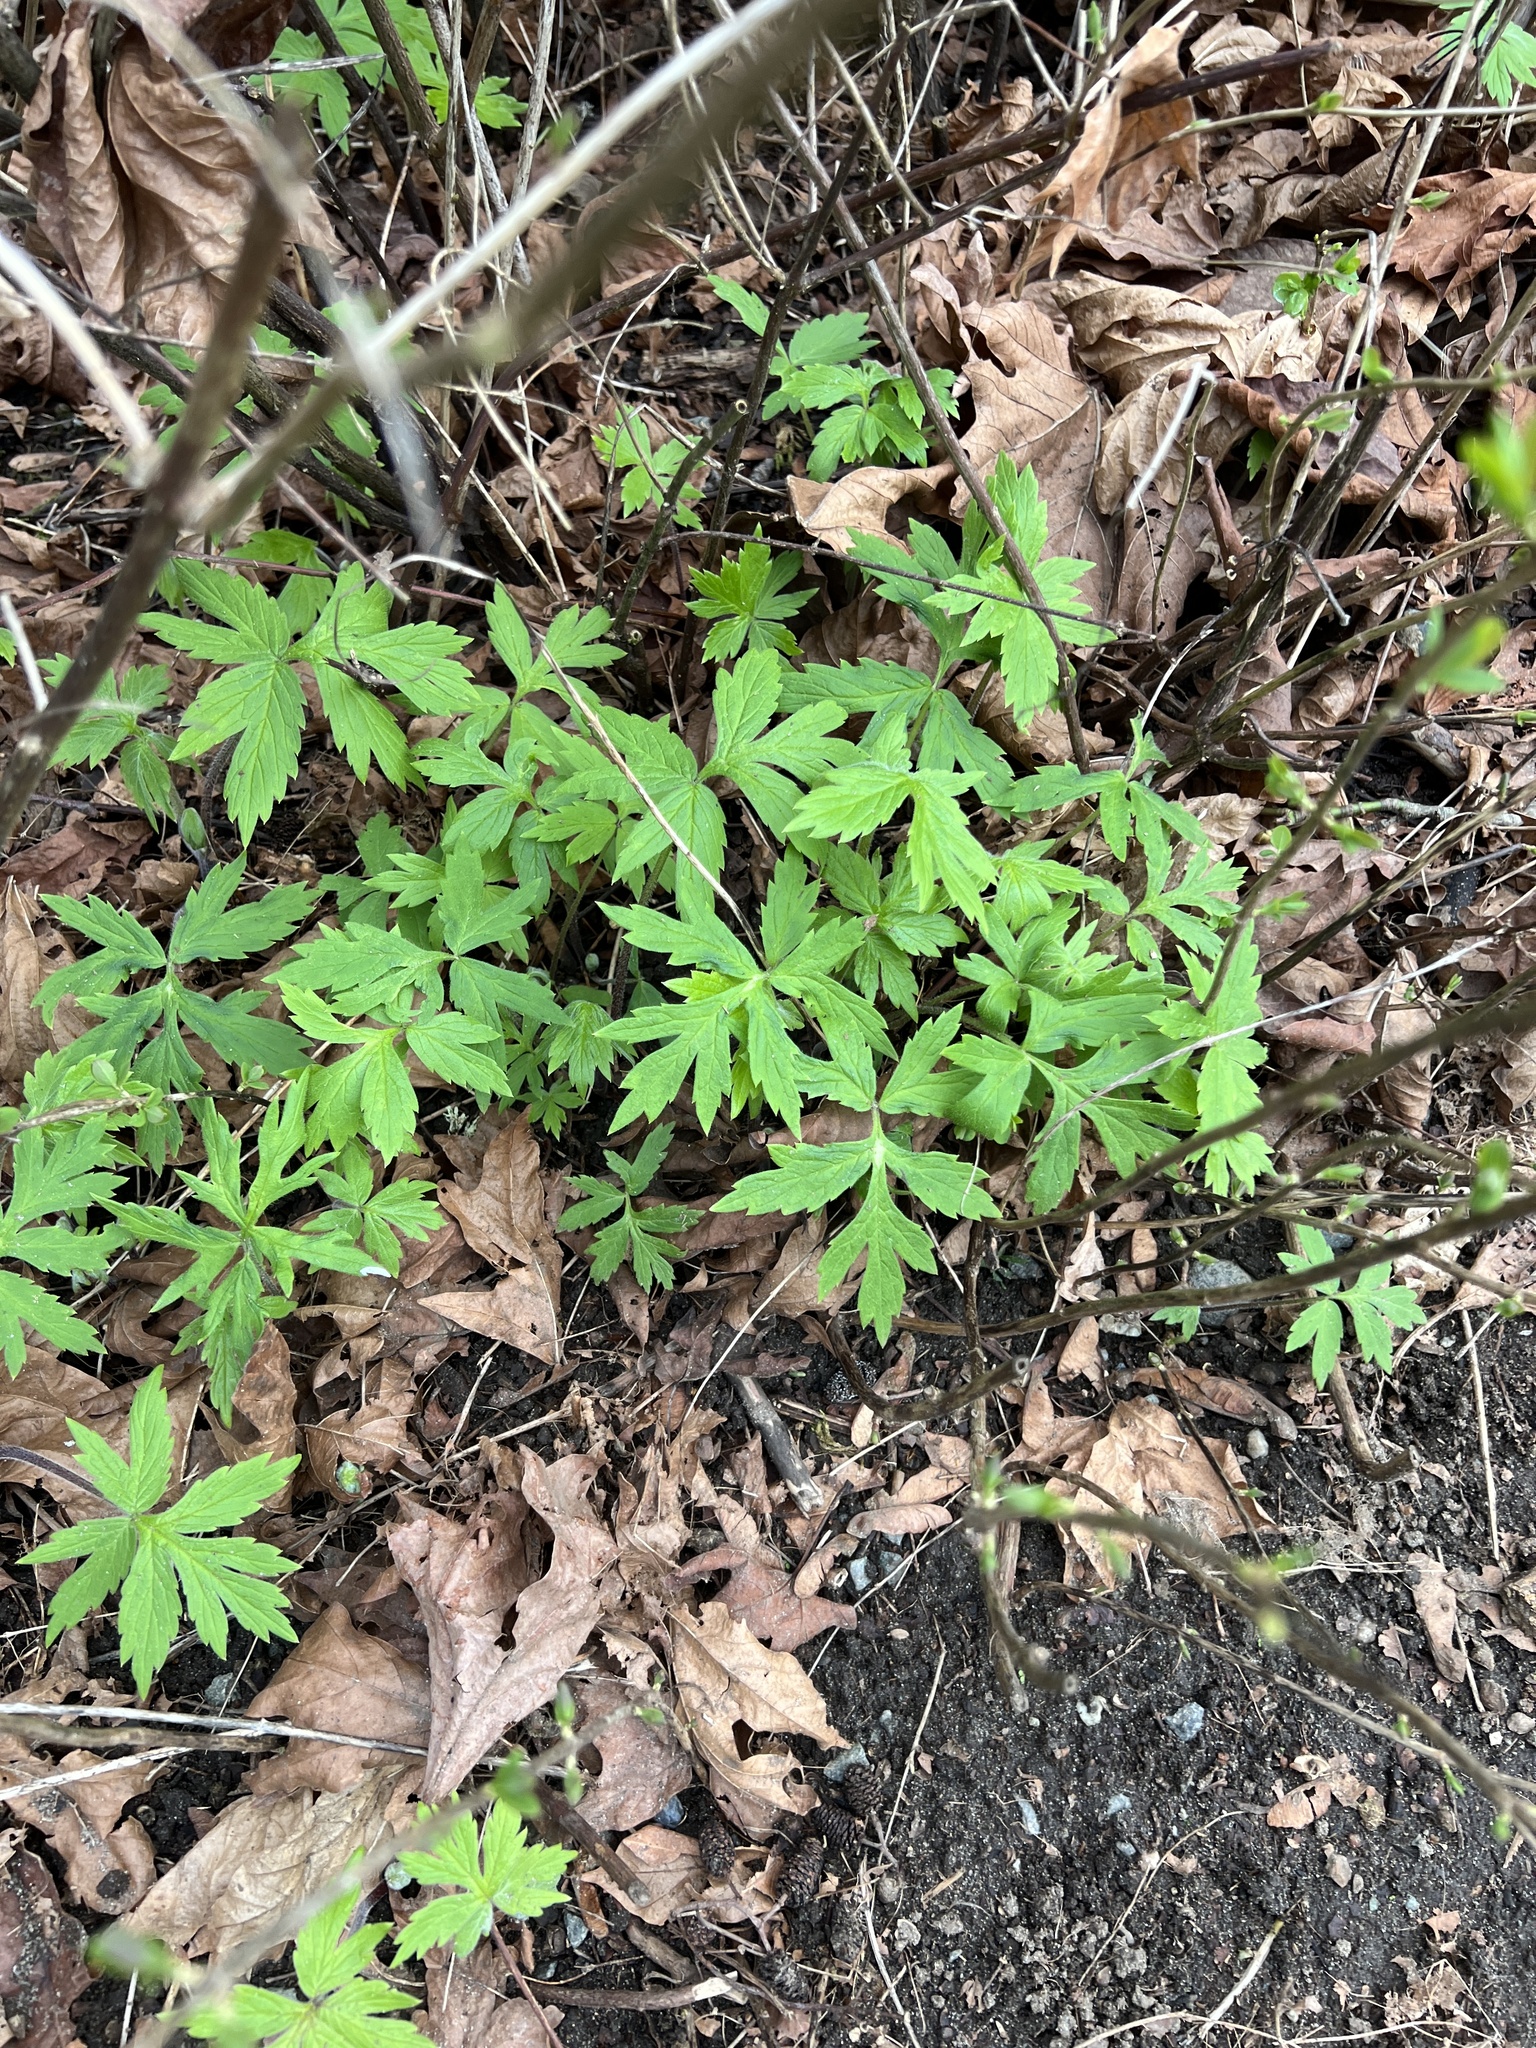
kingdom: Plantae
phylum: Tracheophyta
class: Magnoliopsida
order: Boraginales
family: Hydrophyllaceae
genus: Hydrophyllum
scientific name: Hydrophyllum tenuipes
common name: Pacific waterleaf
